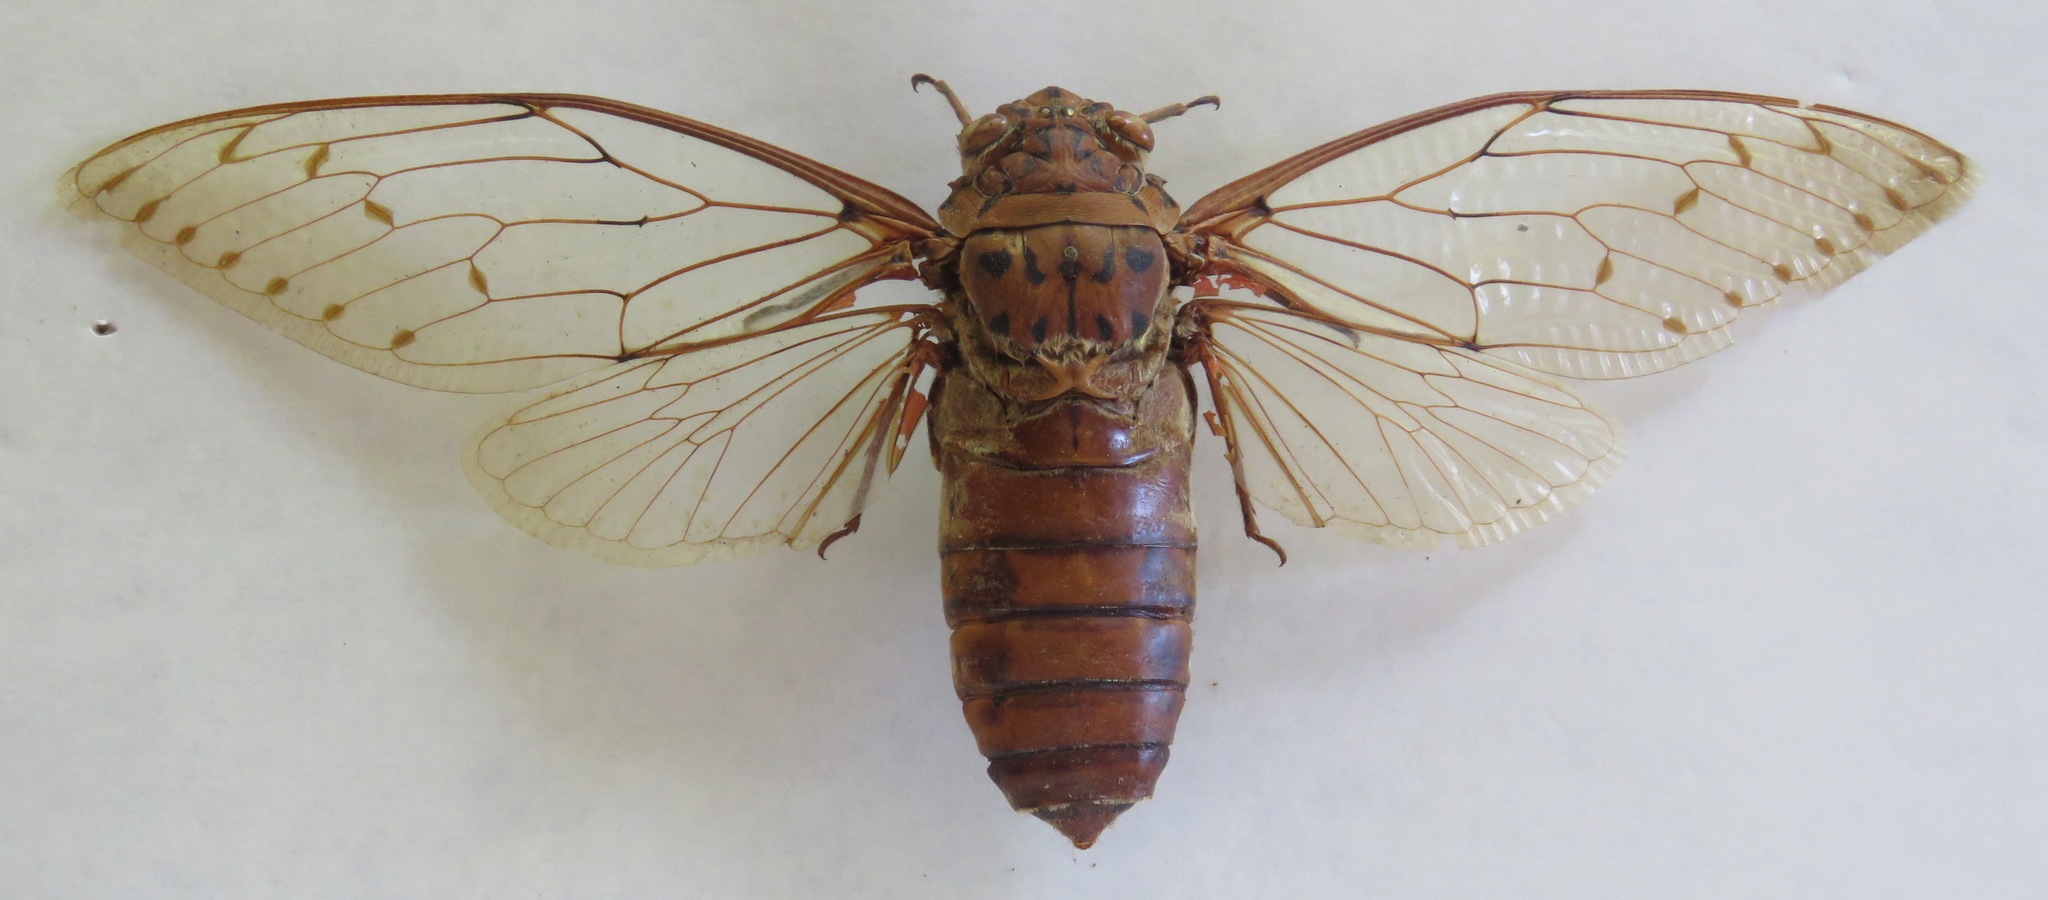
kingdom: Animalia
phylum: Arthropoda
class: Insecta
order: Hemiptera
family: Cicadidae
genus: Megapomponia
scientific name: Megapomponia imperatoria
